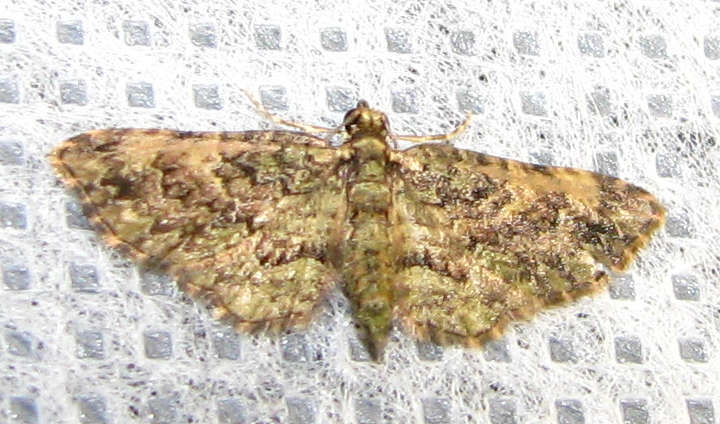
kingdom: Animalia
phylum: Arthropoda
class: Insecta
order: Lepidoptera
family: Geometridae
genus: Chloroclystis
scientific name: Chloroclystis catastreptes
